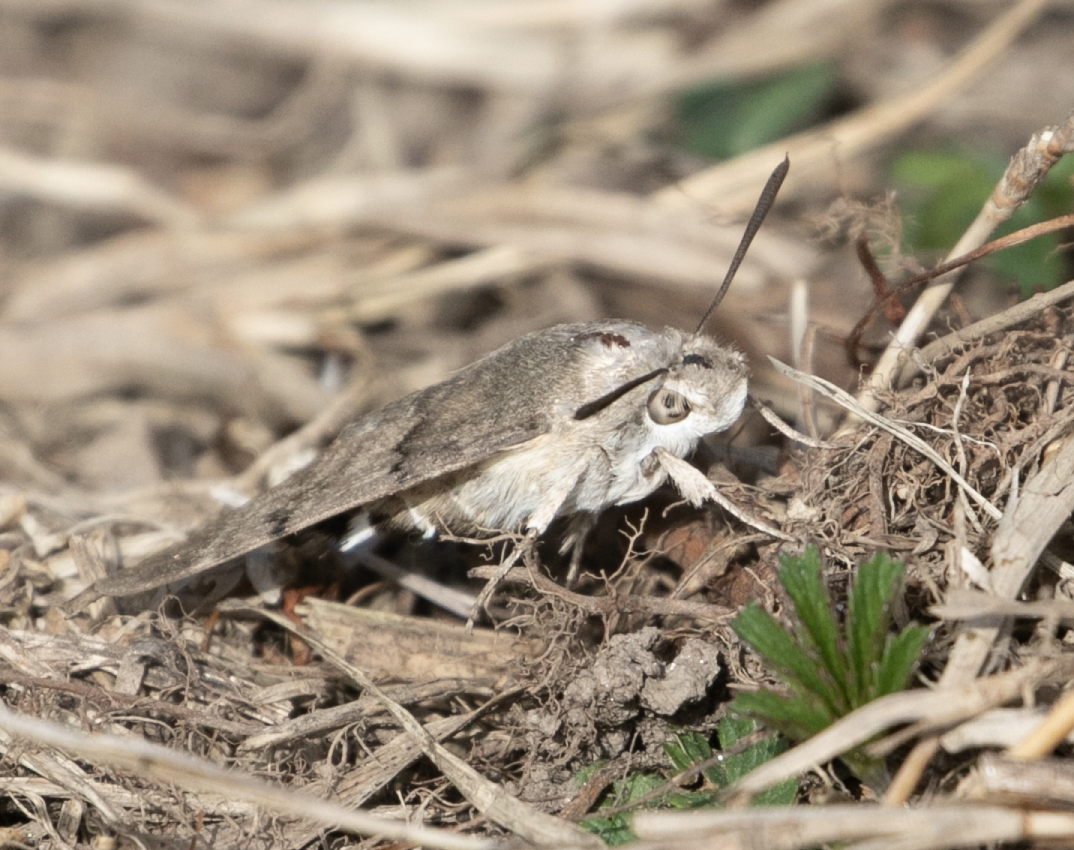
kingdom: Animalia
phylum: Arthropoda
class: Insecta
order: Lepidoptera
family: Sphingidae
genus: Macroglossum
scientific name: Macroglossum stellatarum
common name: Humming-bird hawk-moth
